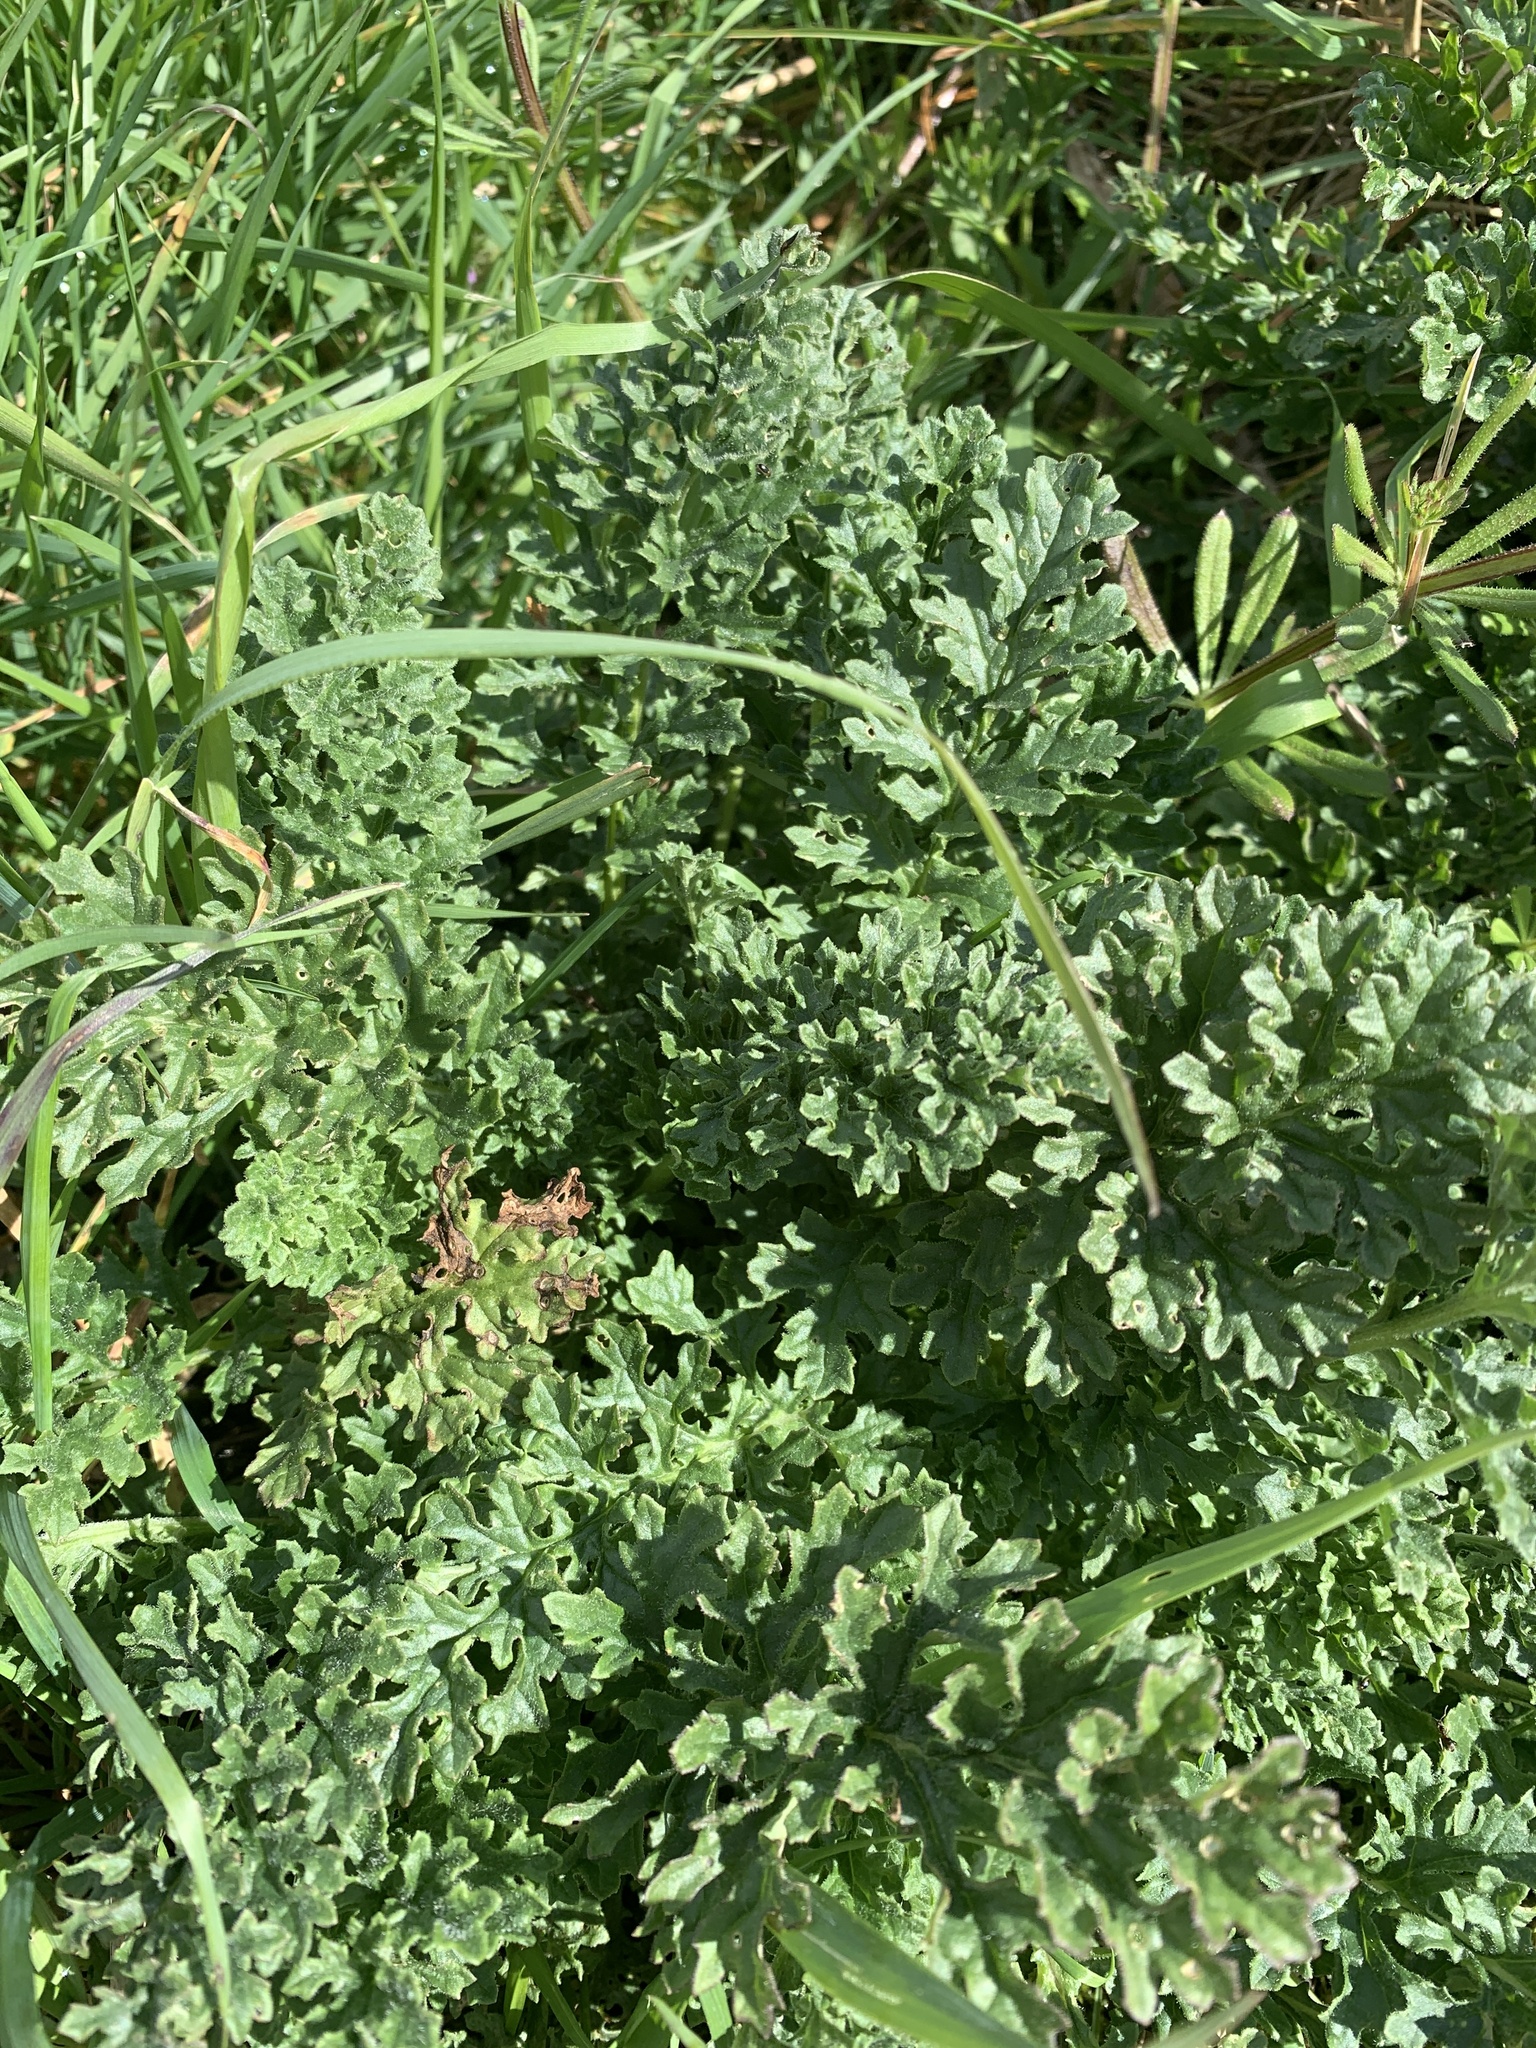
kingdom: Plantae
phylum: Tracheophyta
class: Magnoliopsida
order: Asterales
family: Asteraceae
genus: Jacobaea
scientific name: Jacobaea vulgaris
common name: Stinking willie
